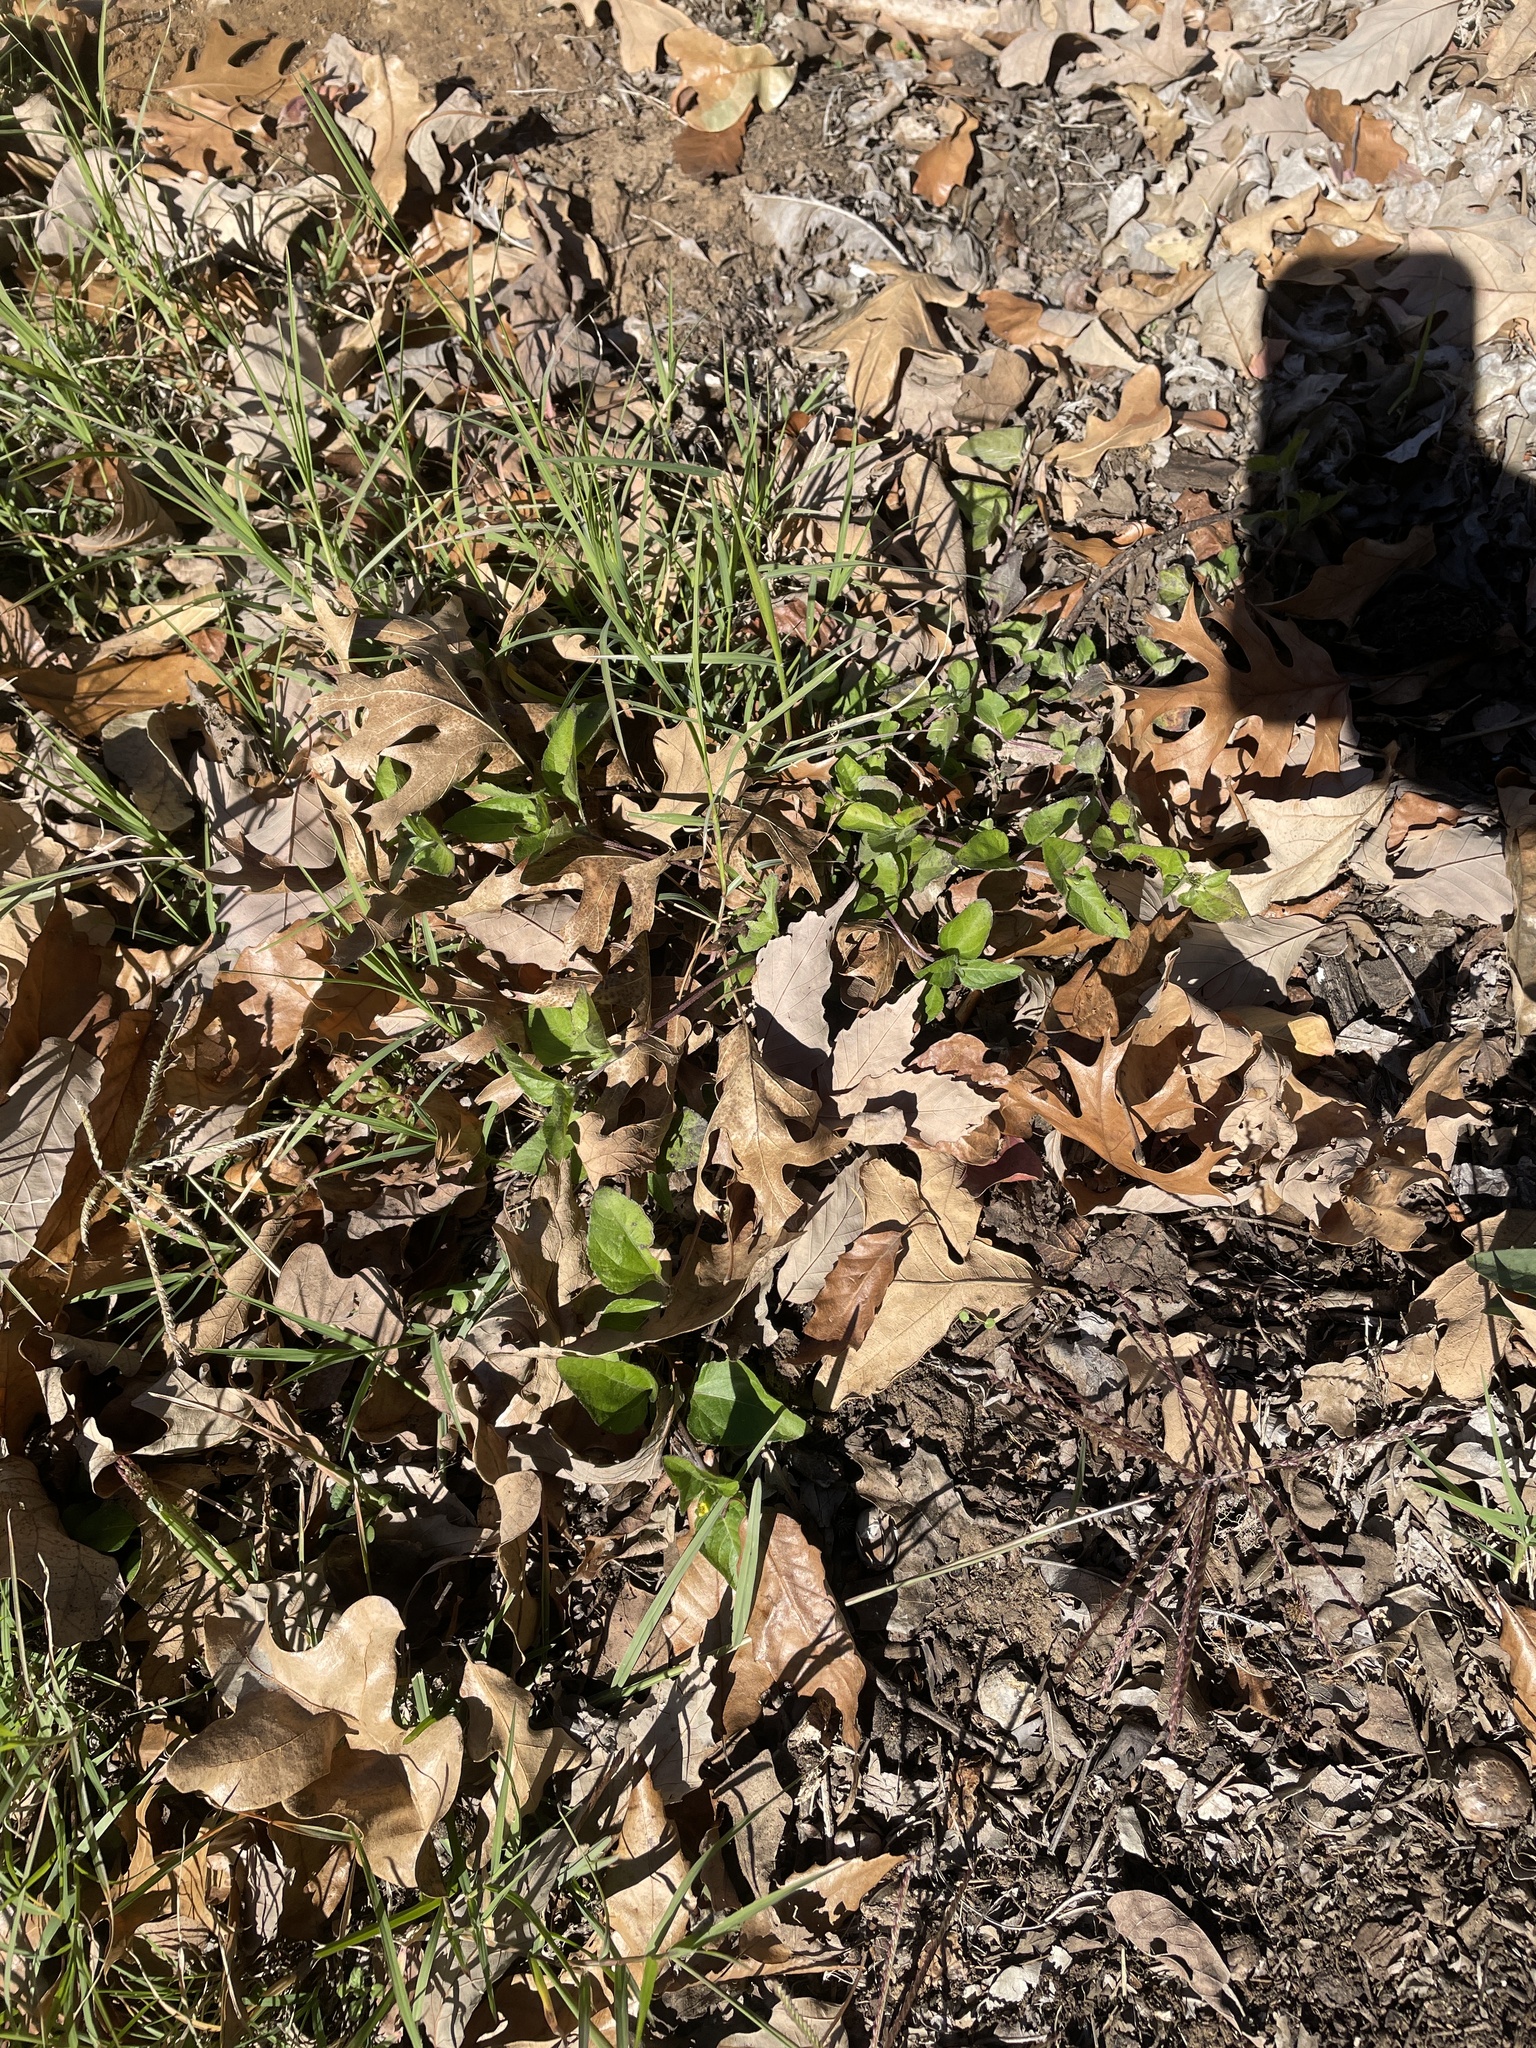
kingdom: Plantae
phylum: Tracheophyta
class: Magnoliopsida
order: Asterales
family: Asteraceae
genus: Calyptocarpus
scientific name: Calyptocarpus vialis
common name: Straggler daisy
